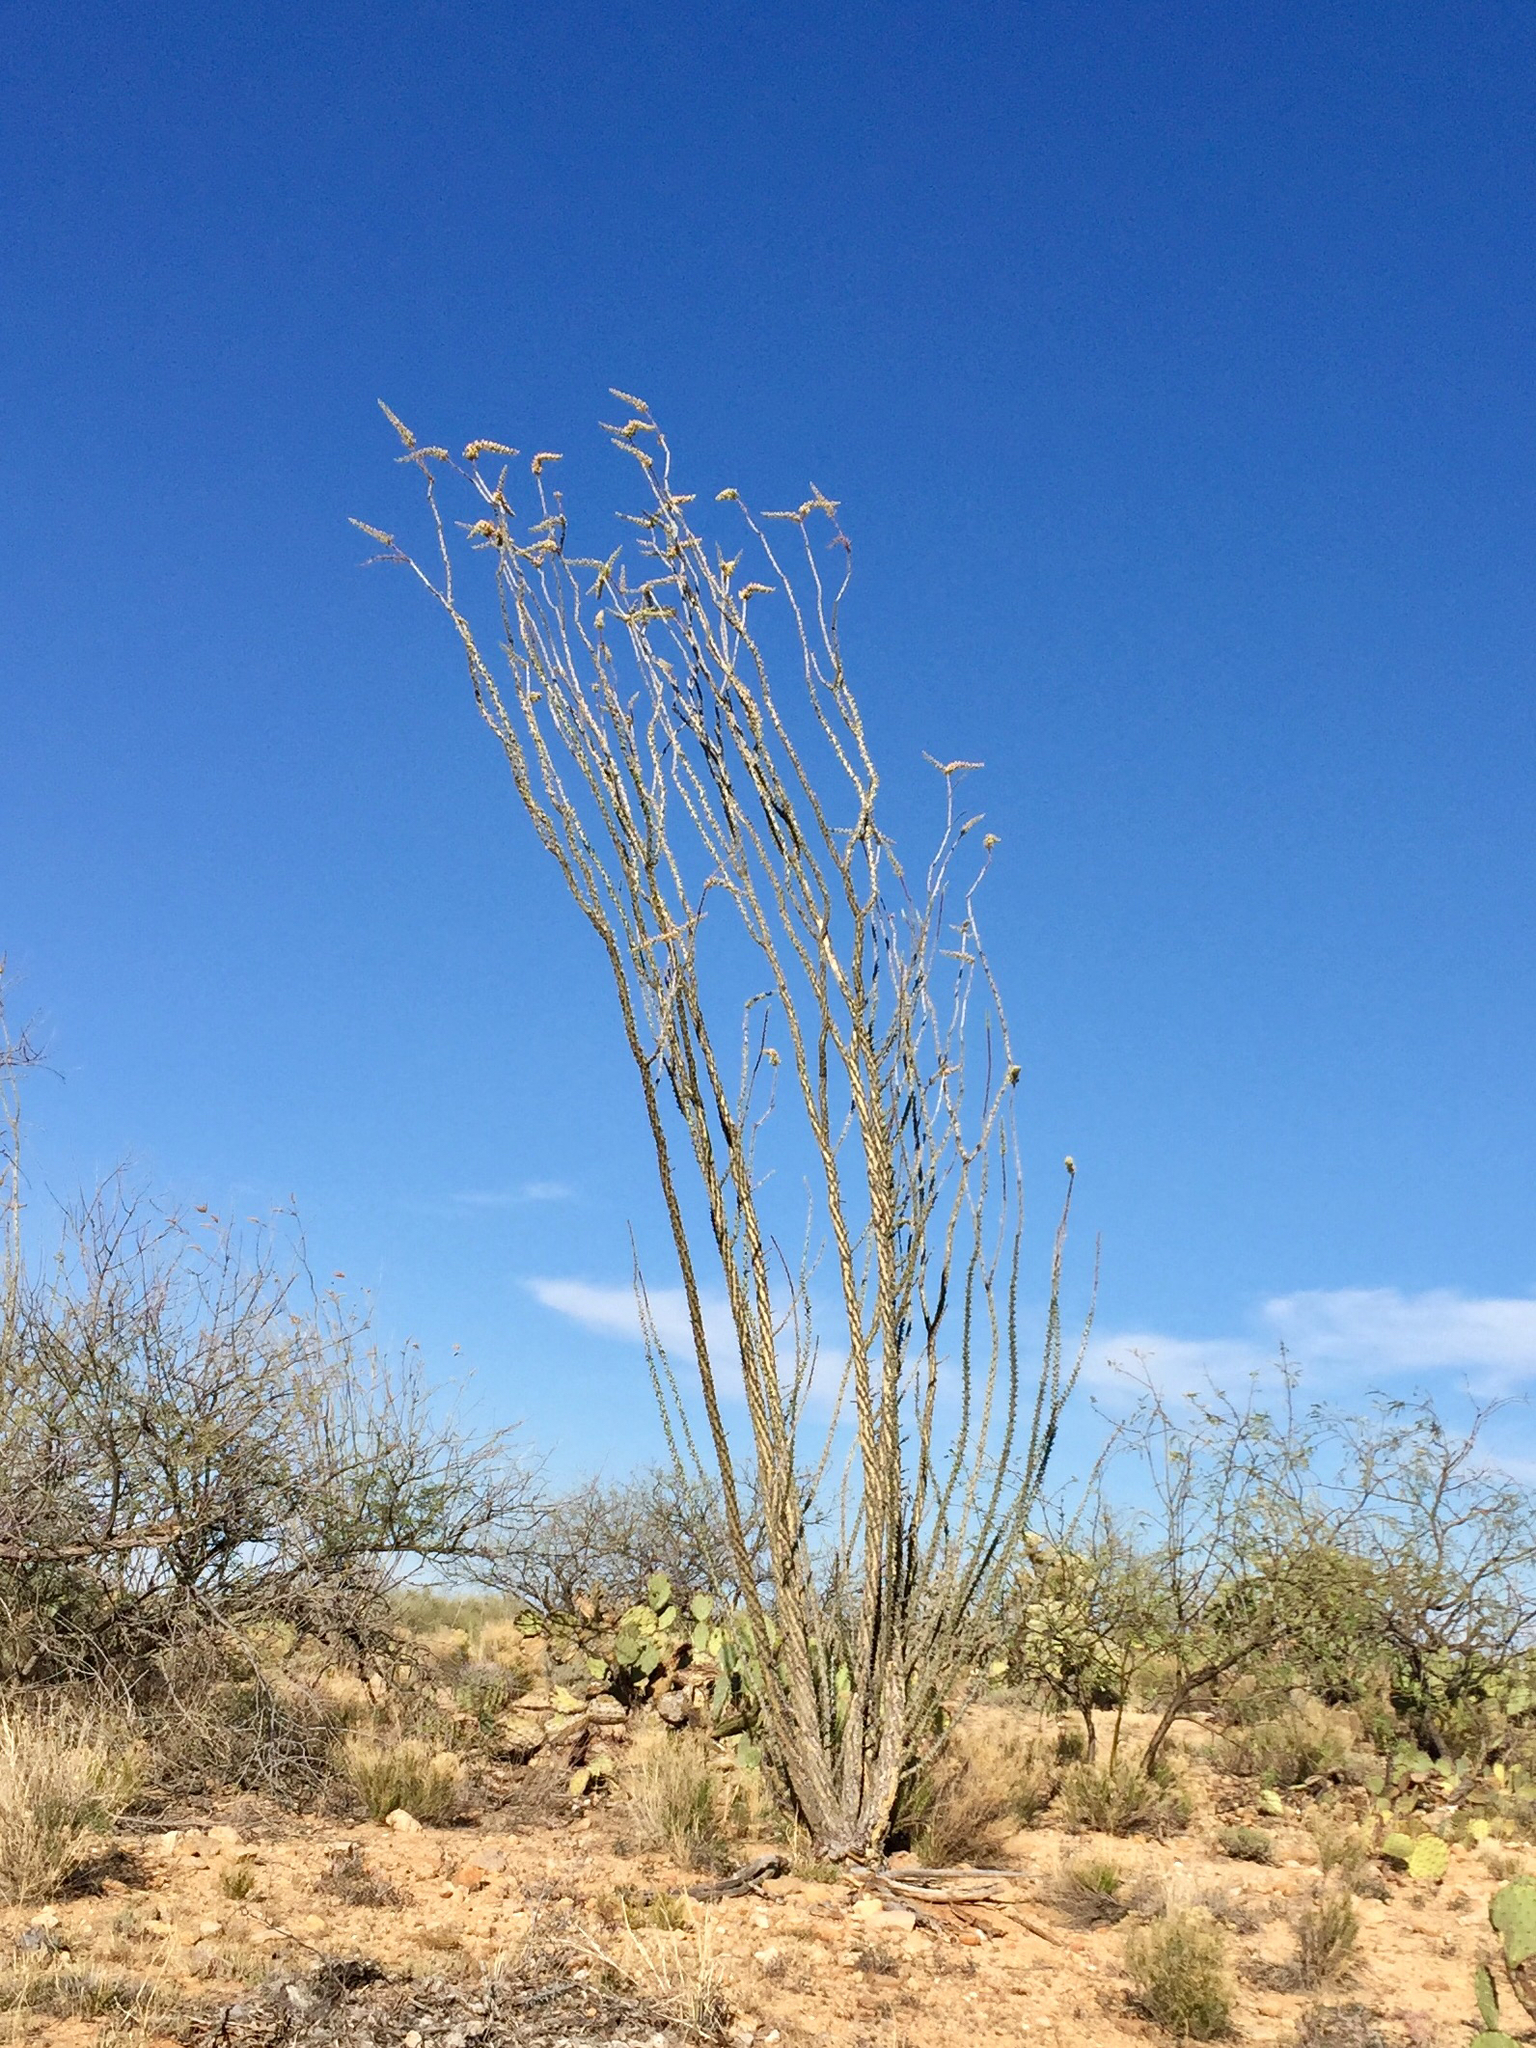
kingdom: Plantae
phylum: Tracheophyta
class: Magnoliopsida
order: Ericales
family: Fouquieriaceae
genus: Fouquieria
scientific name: Fouquieria splendens
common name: Vine-cactus
